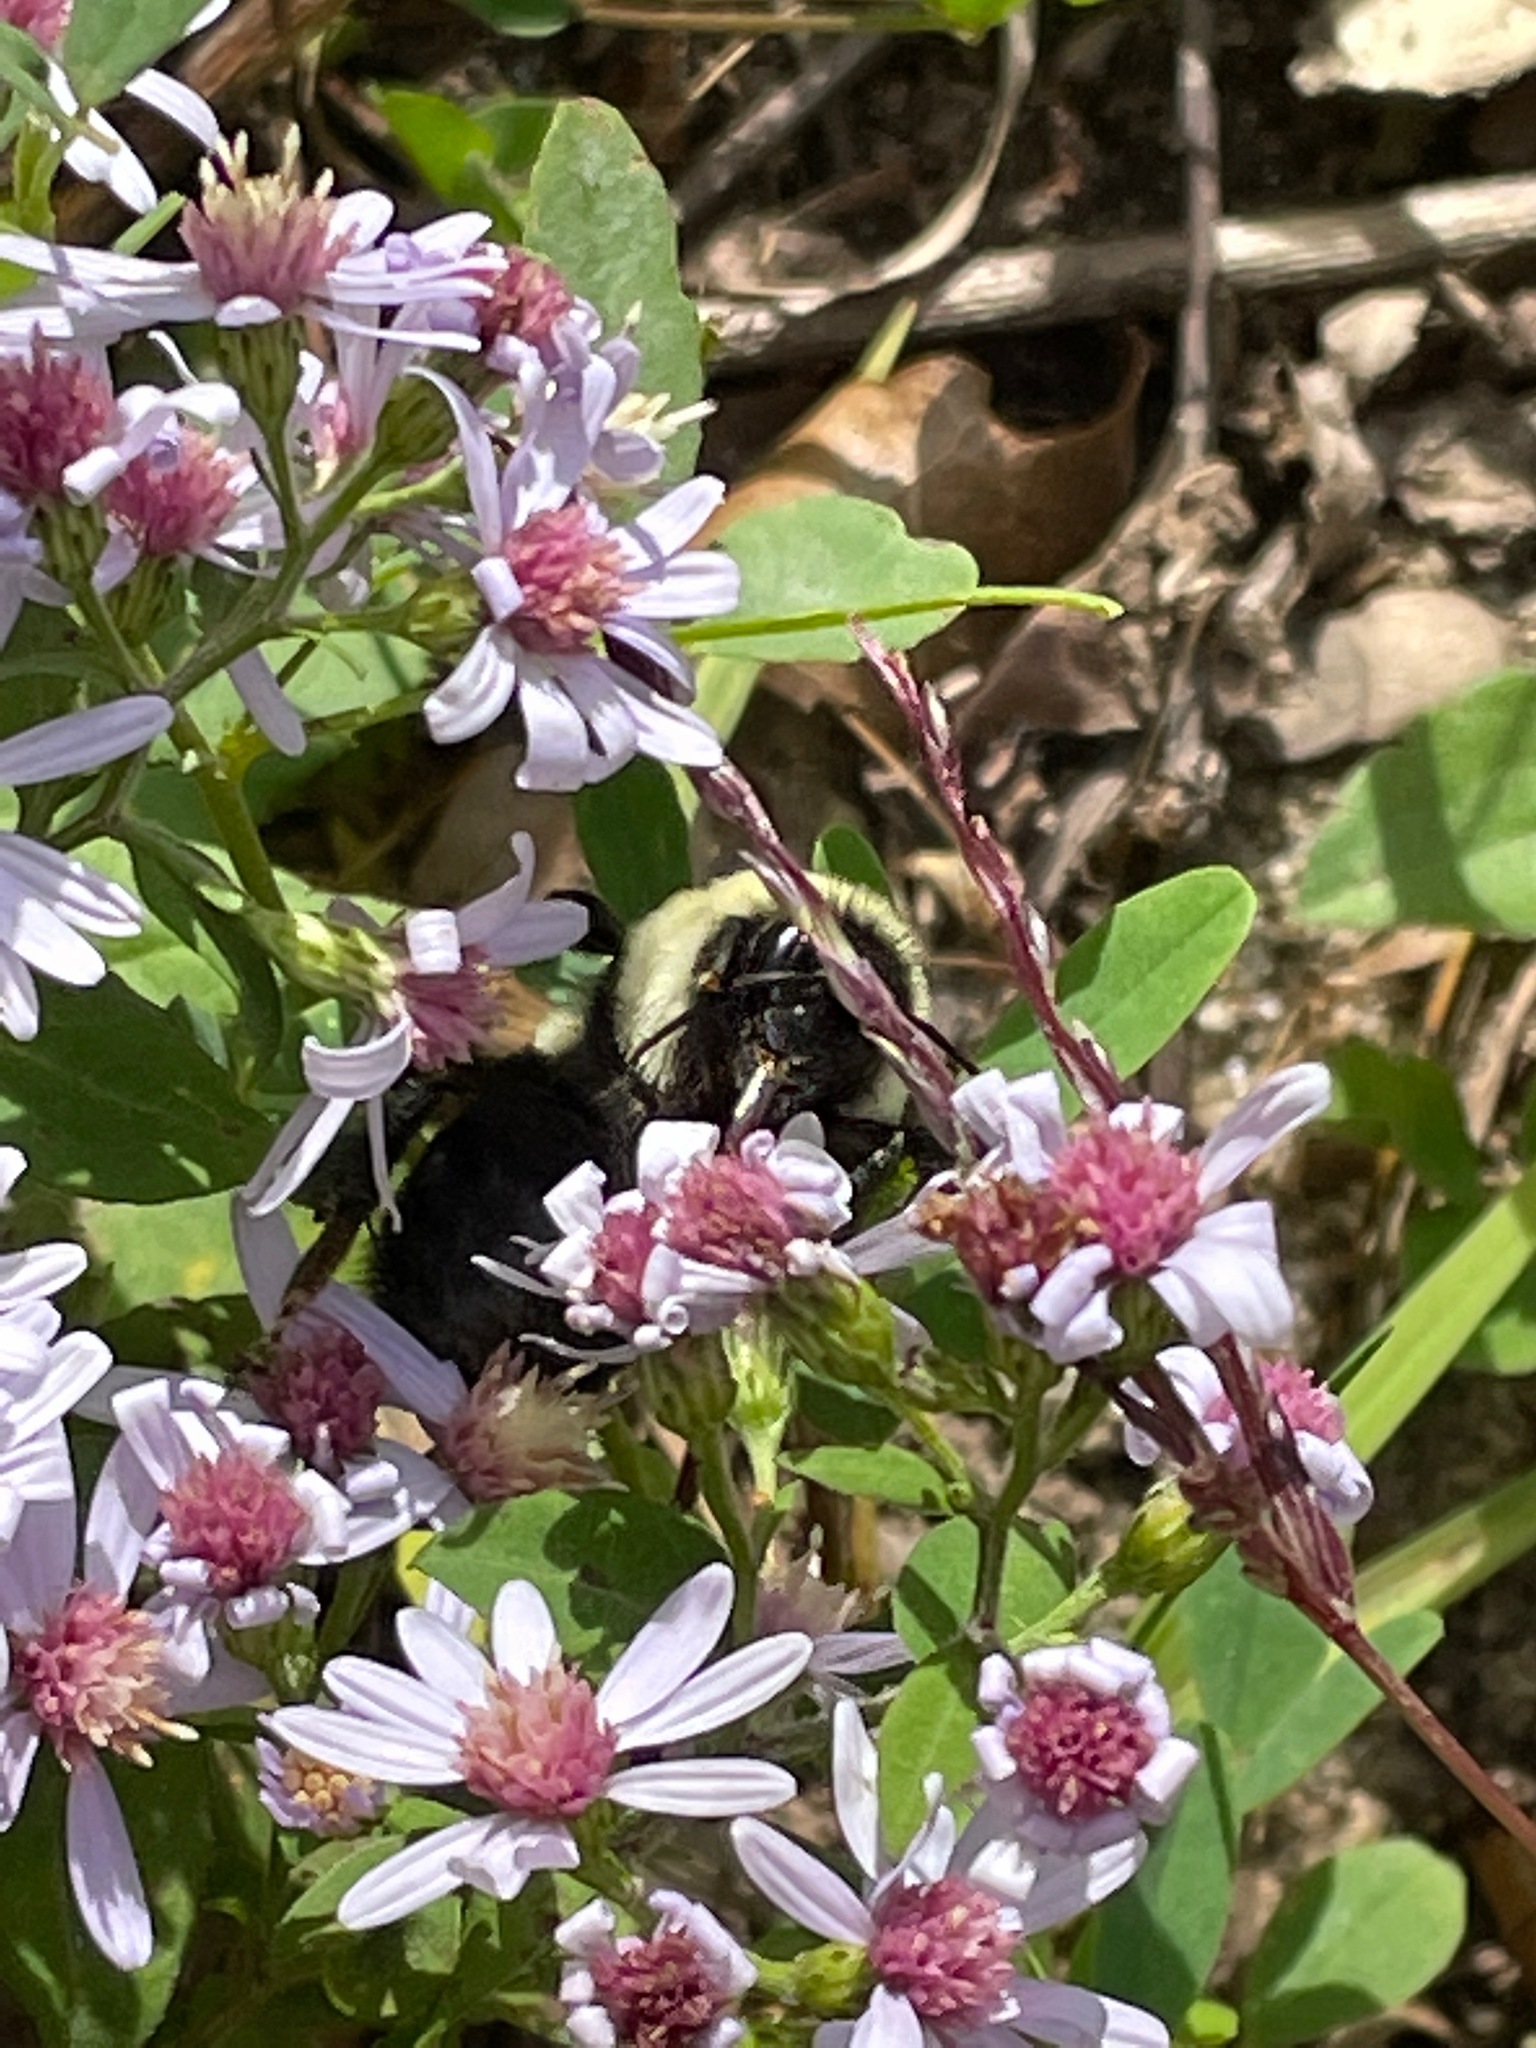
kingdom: Plantae
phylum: Tracheophyta
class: Magnoliopsida
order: Asterales
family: Asteraceae
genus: Symphyotrichum
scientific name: Symphyotrichum cordifolium
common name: Beeweed
